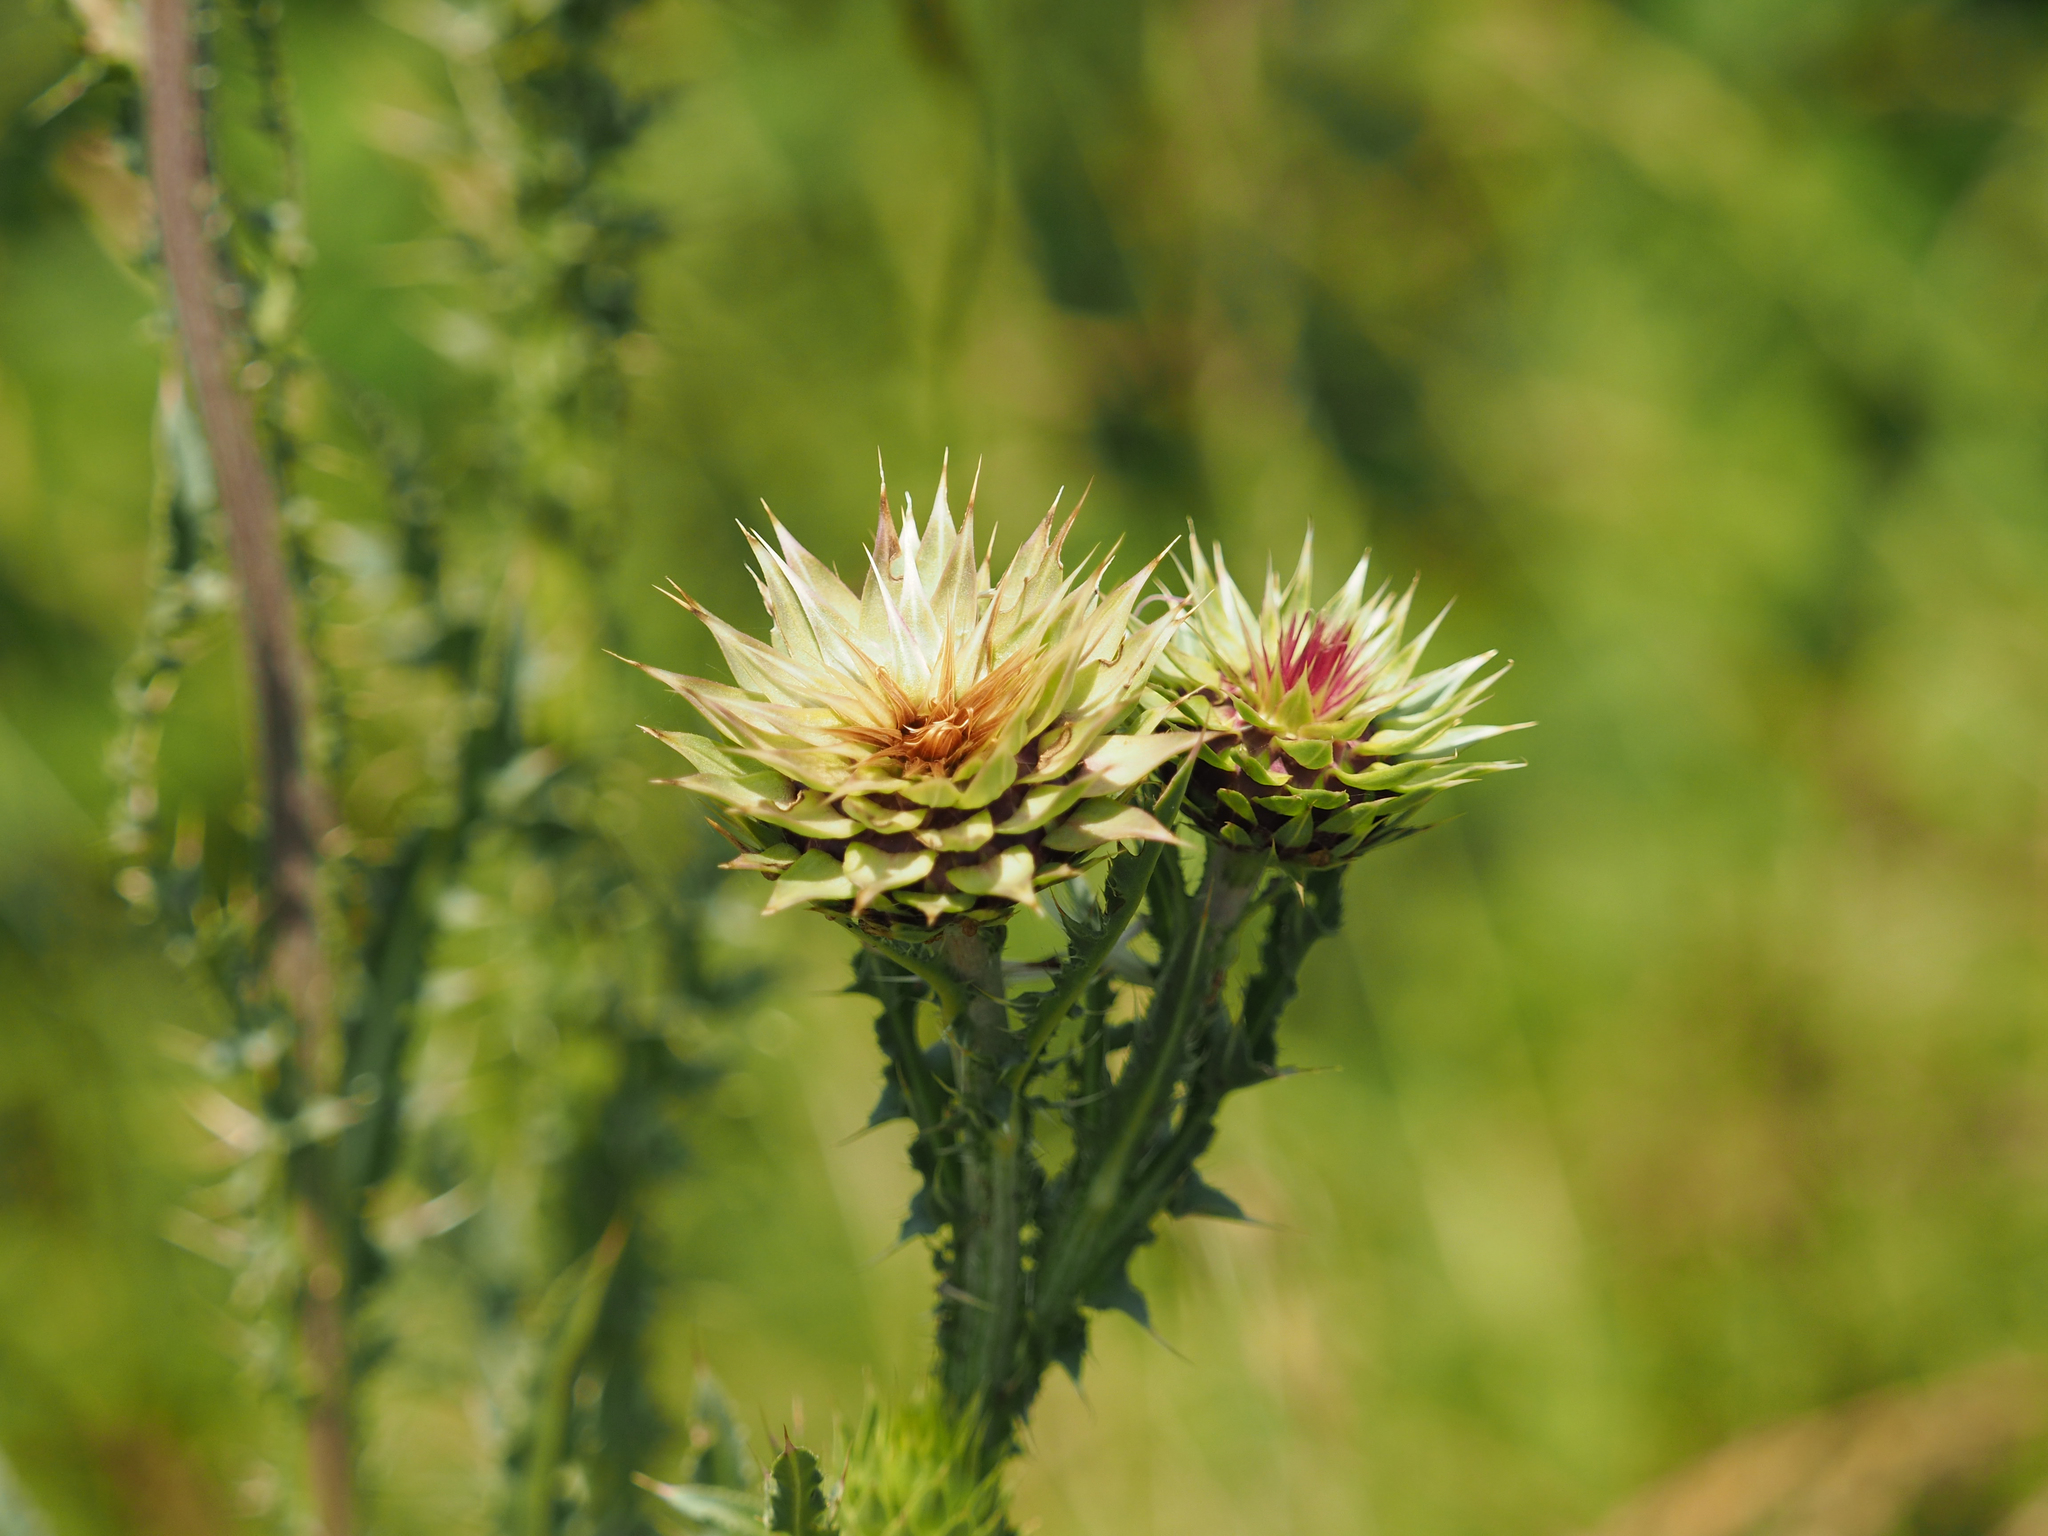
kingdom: Plantae
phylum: Tracheophyta
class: Magnoliopsida
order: Asterales
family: Asteraceae
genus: Carduus
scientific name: Carduus nutans
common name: Musk thistle
